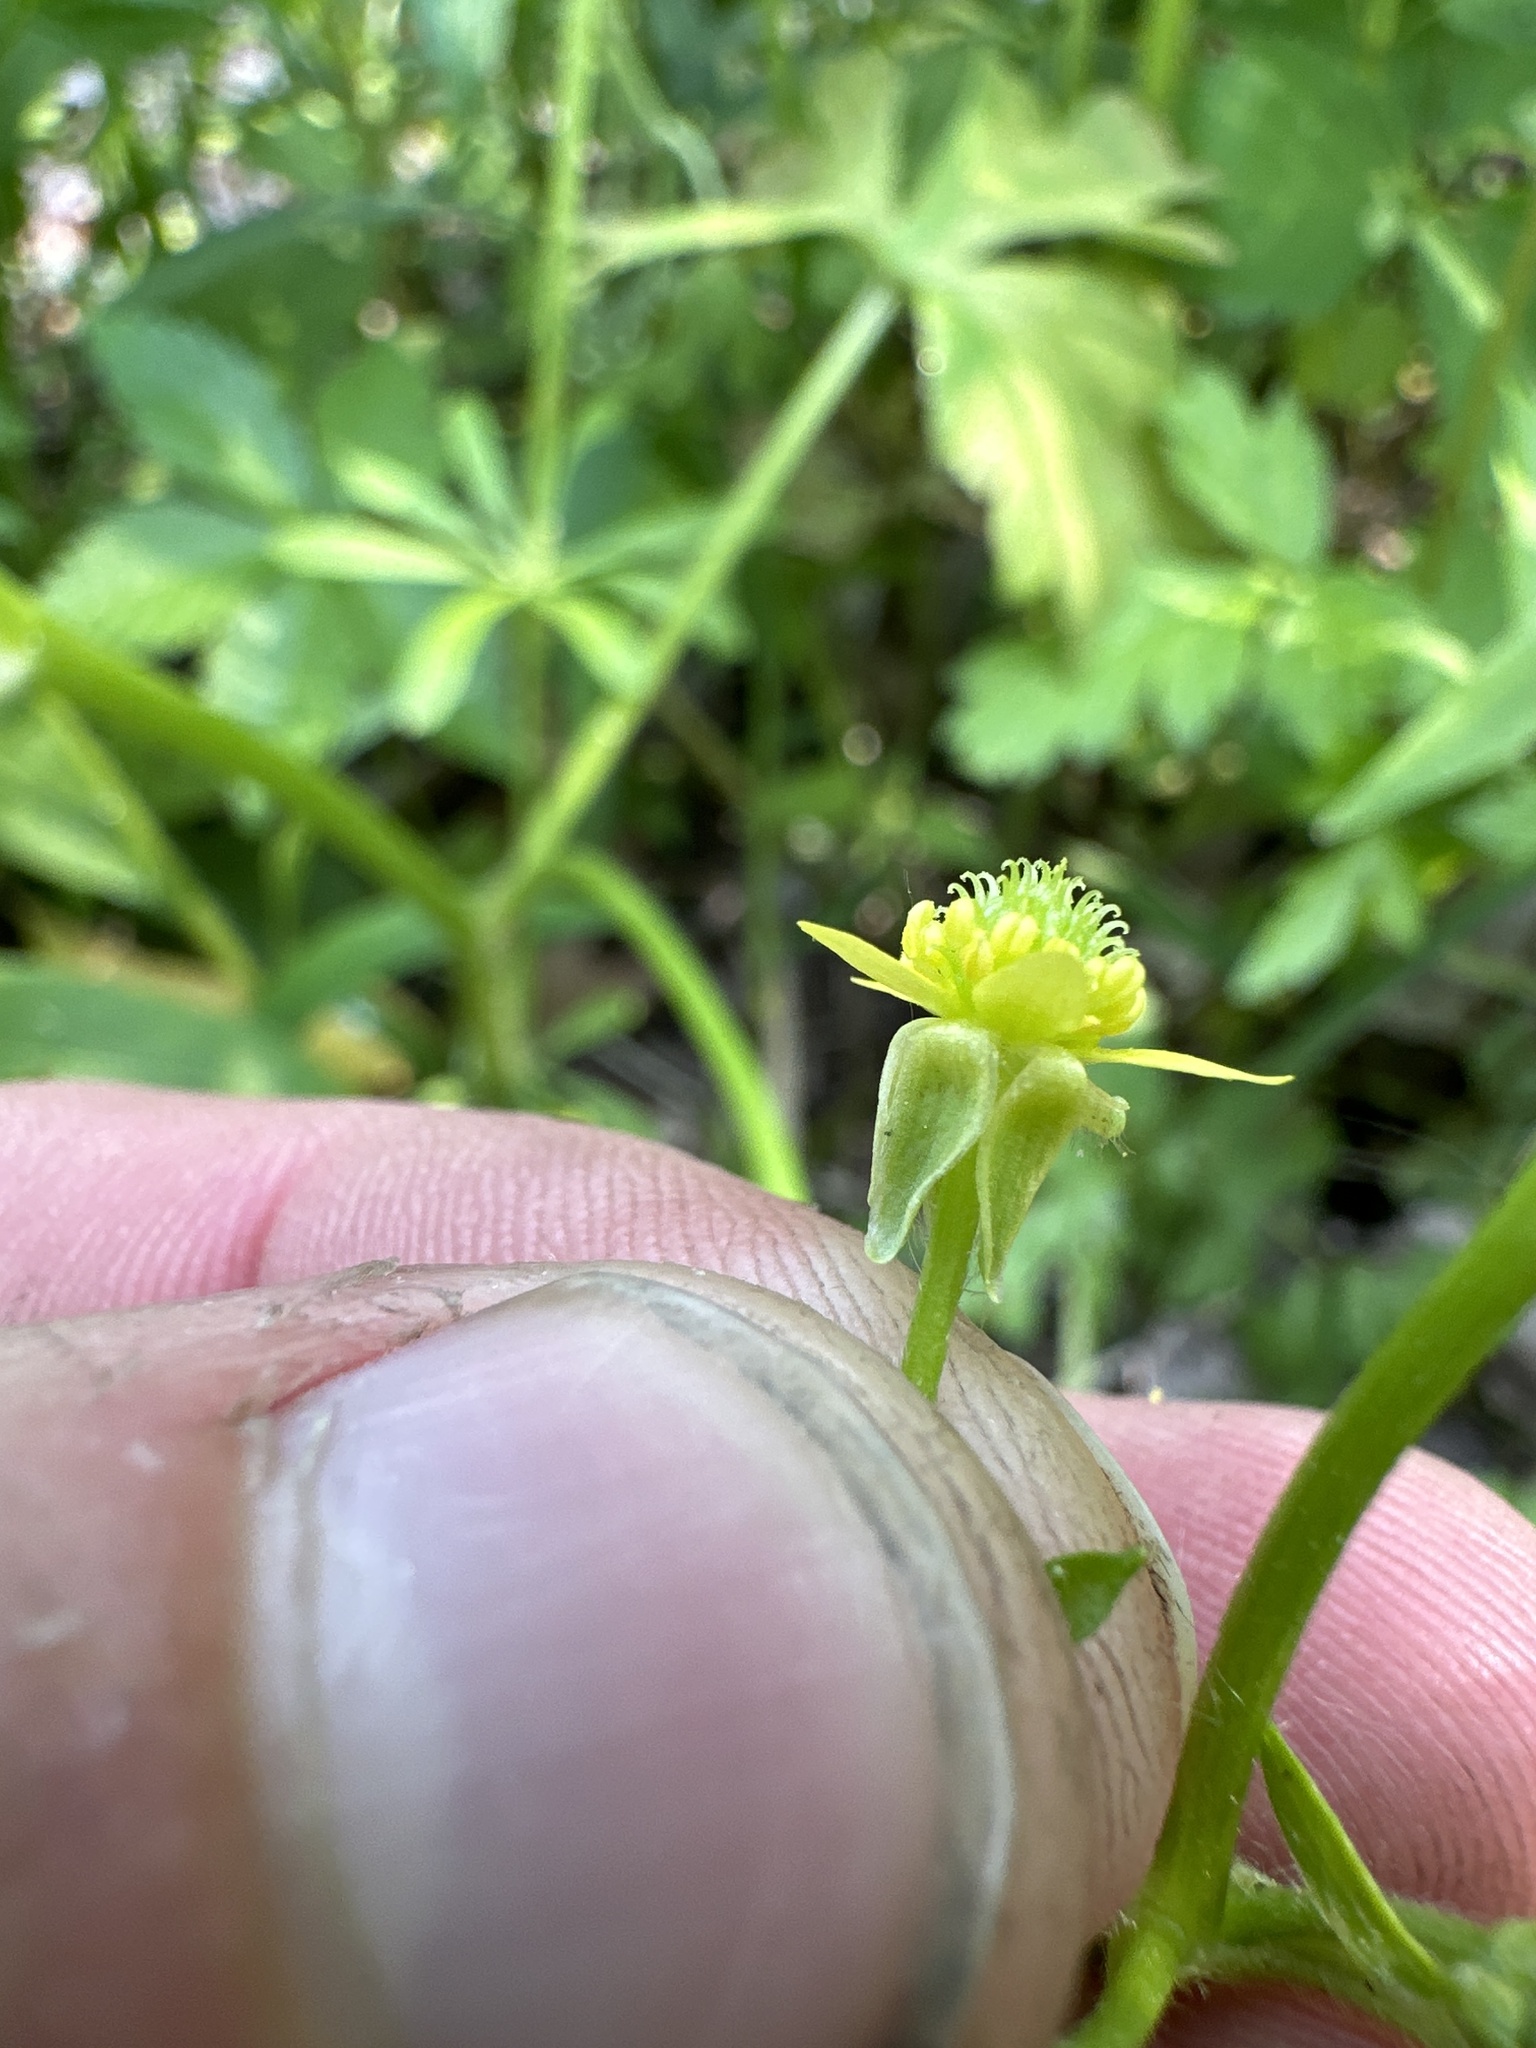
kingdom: Plantae
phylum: Tracheophyta
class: Magnoliopsida
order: Ranunculales
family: Ranunculaceae
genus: Ranunculus
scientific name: Ranunculus recurvatus
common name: Blisterwort
